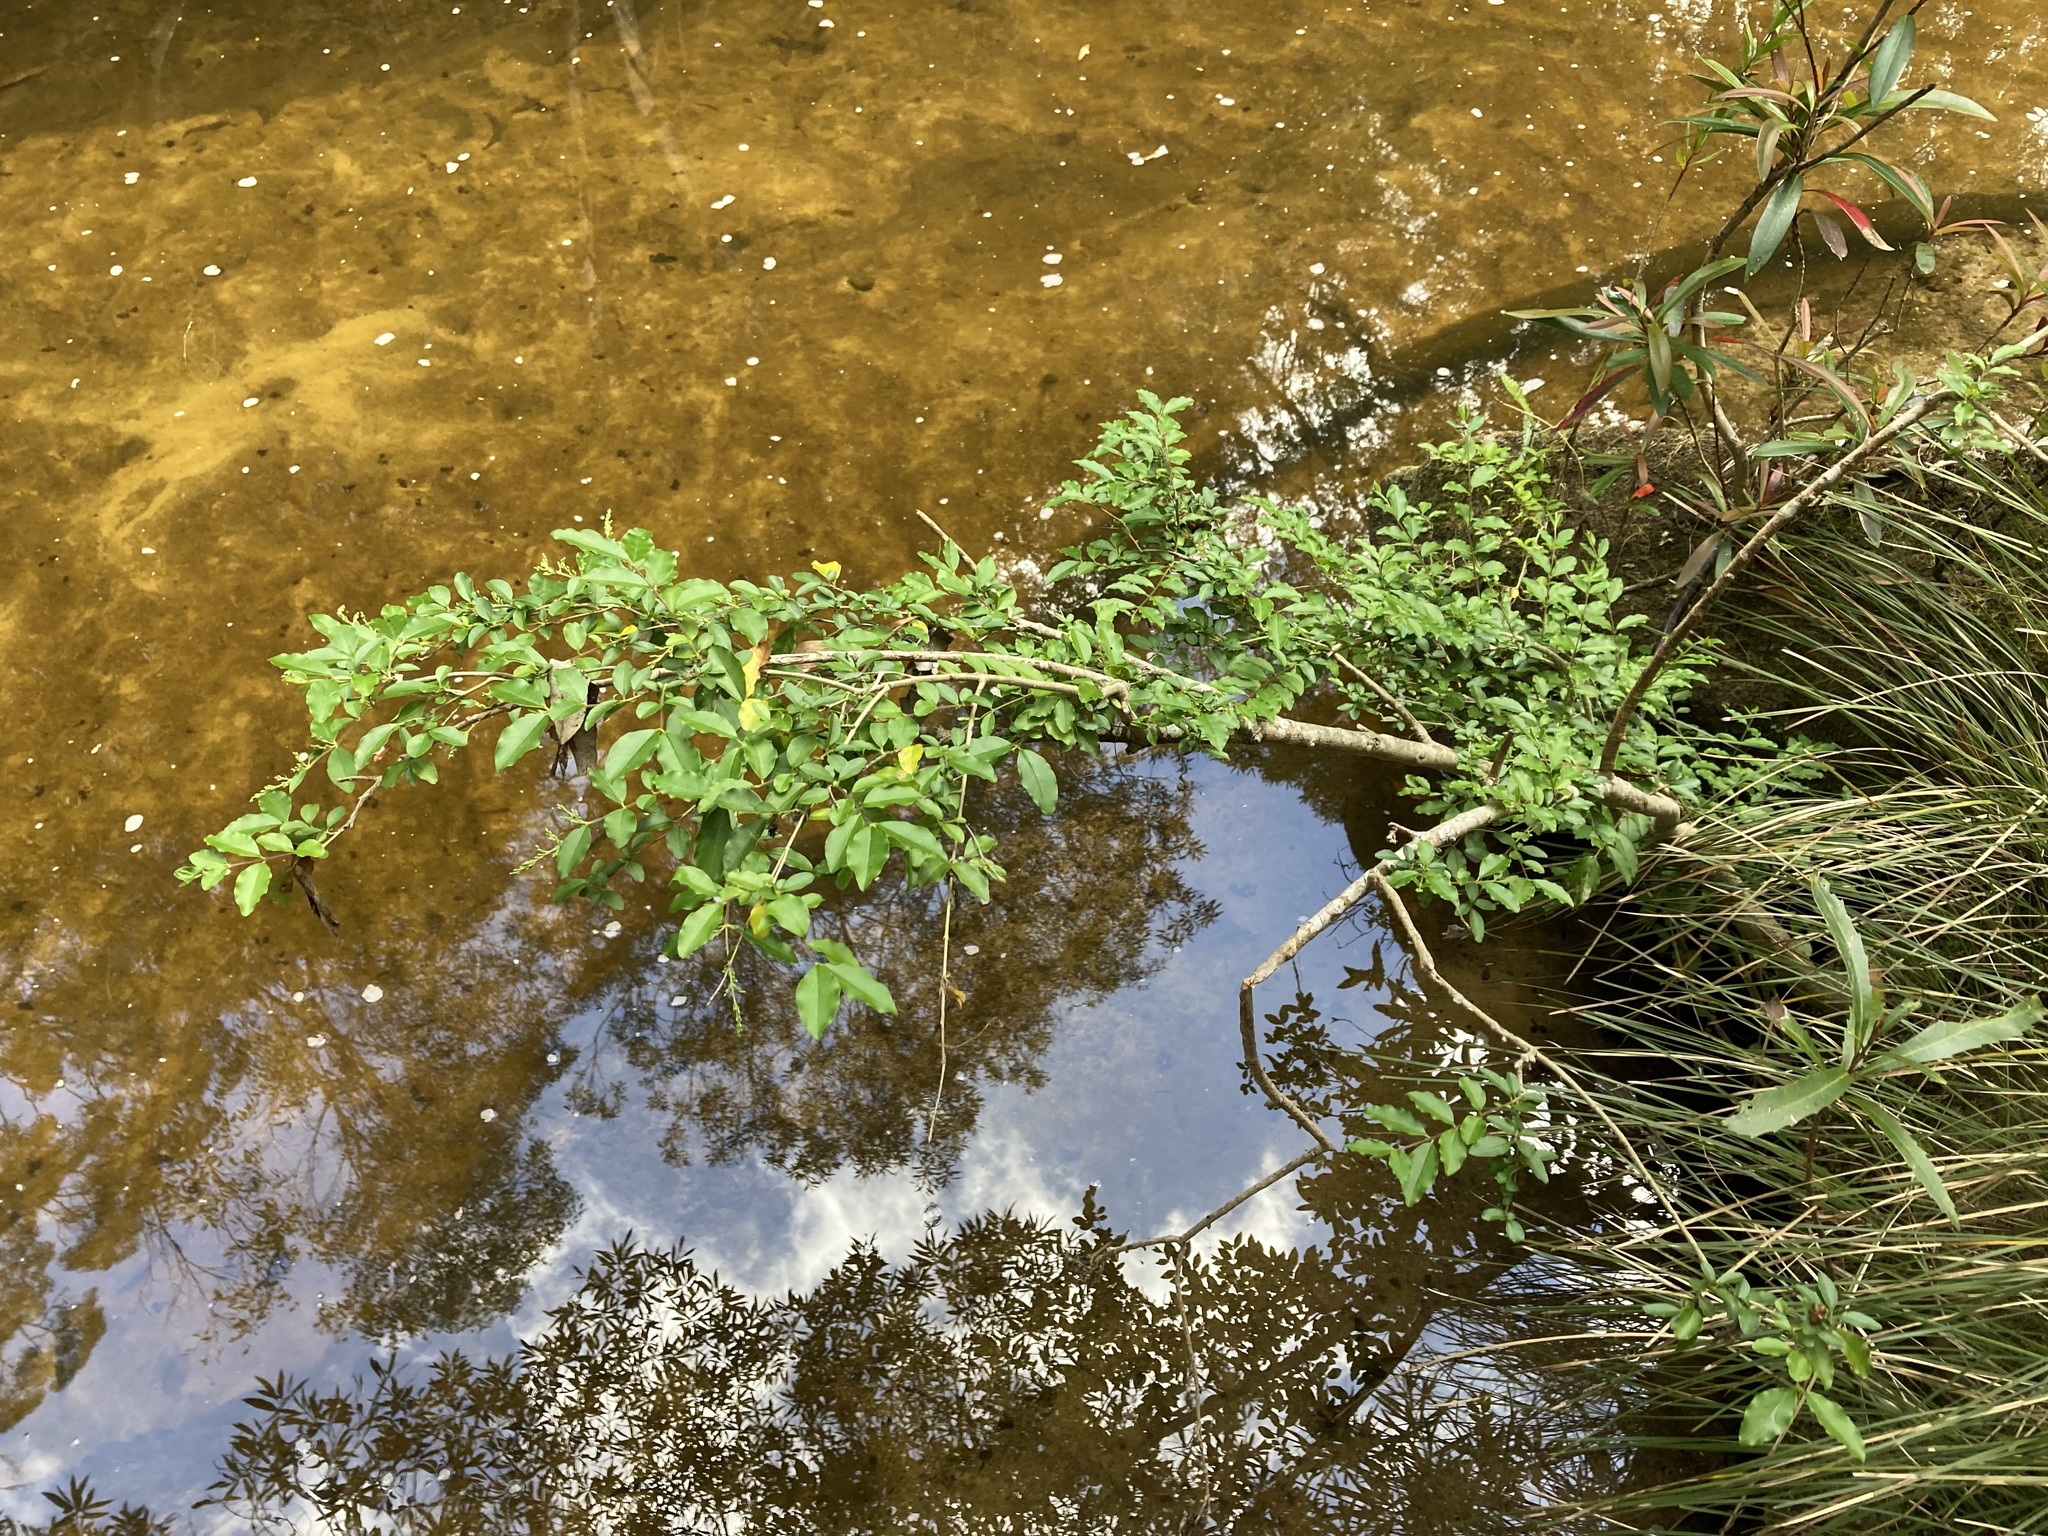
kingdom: Plantae
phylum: Tracheophyta
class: Magnoliopsida
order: Lamiales
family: Oleaceae
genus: Ligustrum
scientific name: Ligustrum sinense
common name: Chinese privet
